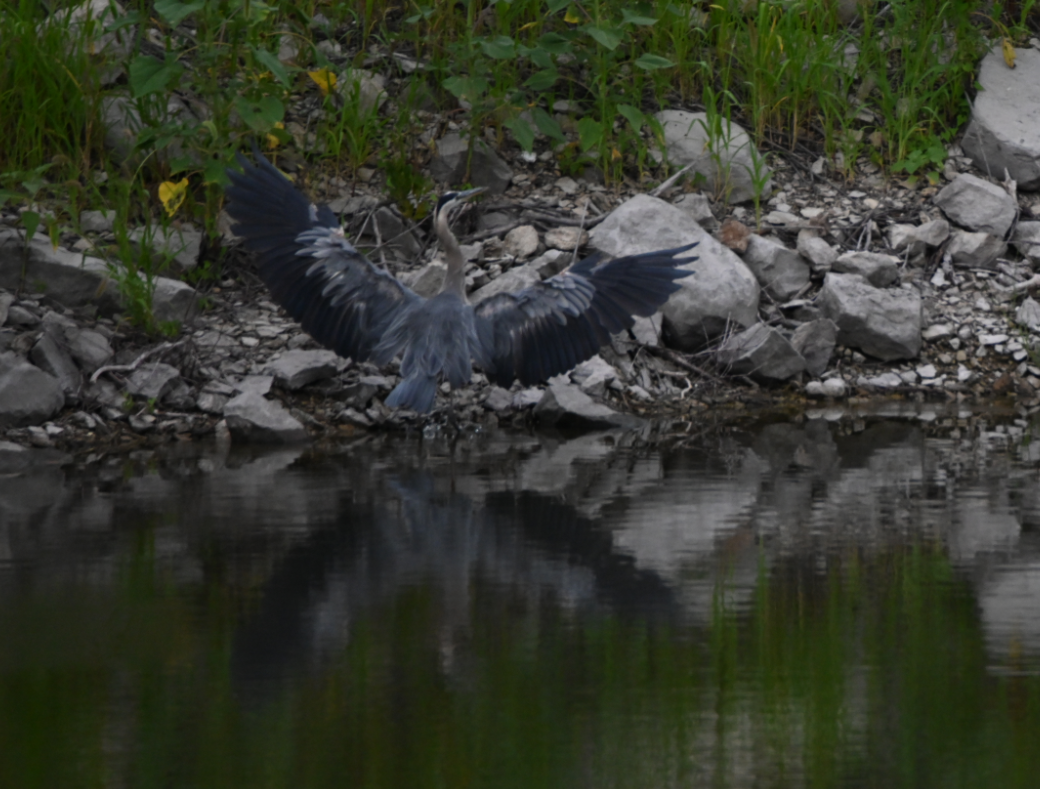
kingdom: Animalia
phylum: Chordata
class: Aves
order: Pelecaniformes
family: Ardeidae
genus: Ardea
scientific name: Ardea herodias
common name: Great blue heron
